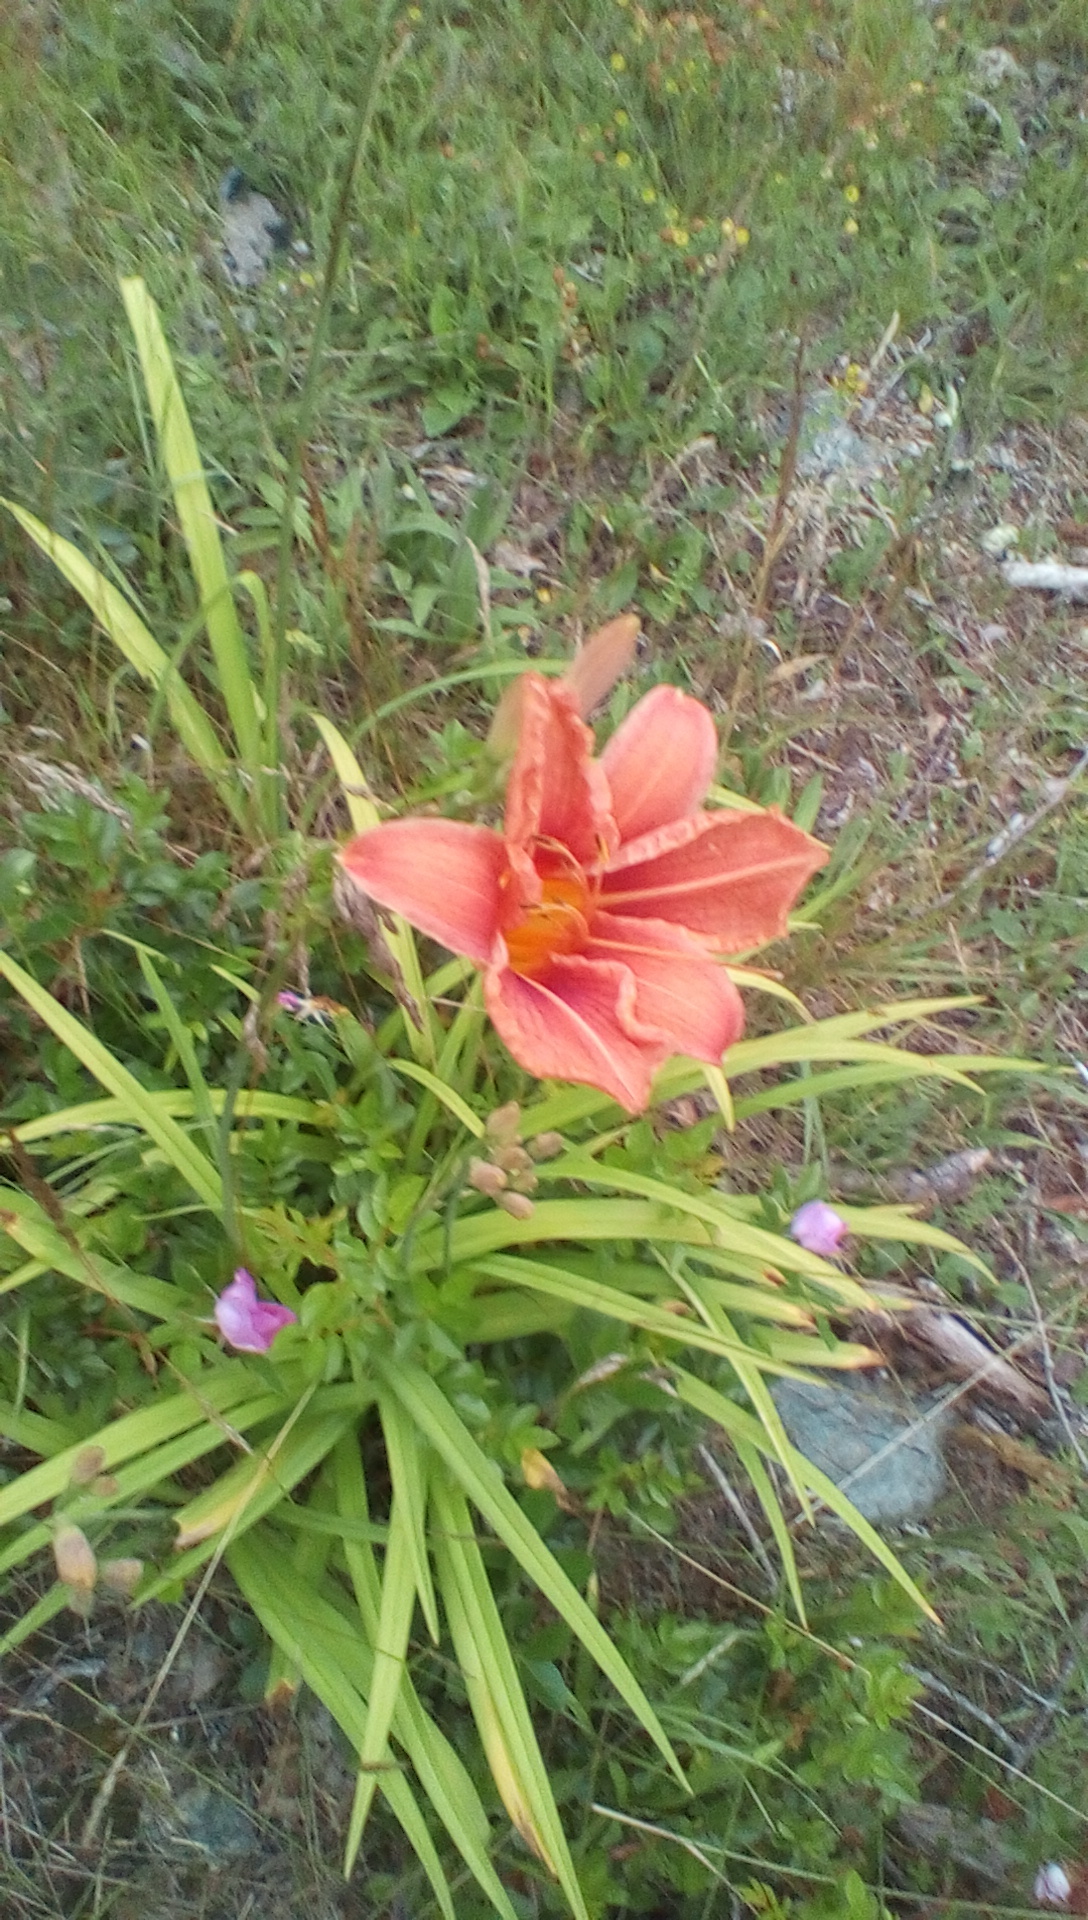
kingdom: Plantae
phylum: Tracheophyta
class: Liliopsida
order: Asparagales
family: Asphodelaceae
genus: Hemerocallis
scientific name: Hemerocallis fulva
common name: Orange day-lily
